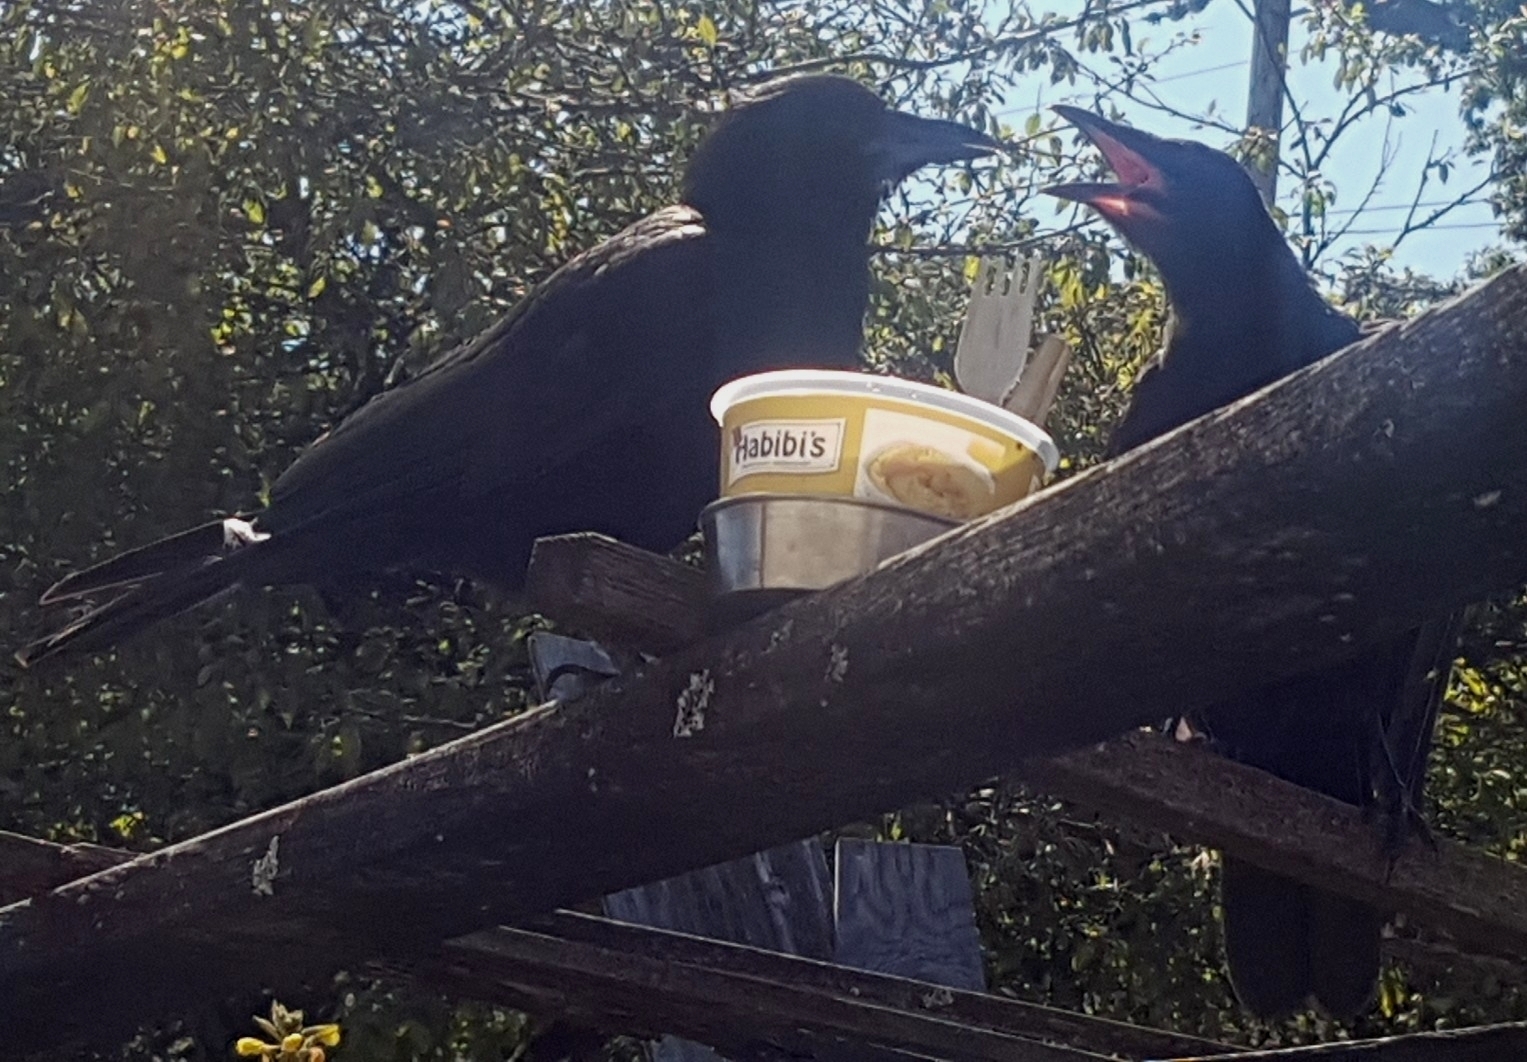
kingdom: Animalia
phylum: Chordata
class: Aves
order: Passeriformes
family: Corvidae
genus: Corvus
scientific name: Corvus brachyrhynchos
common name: American crow
